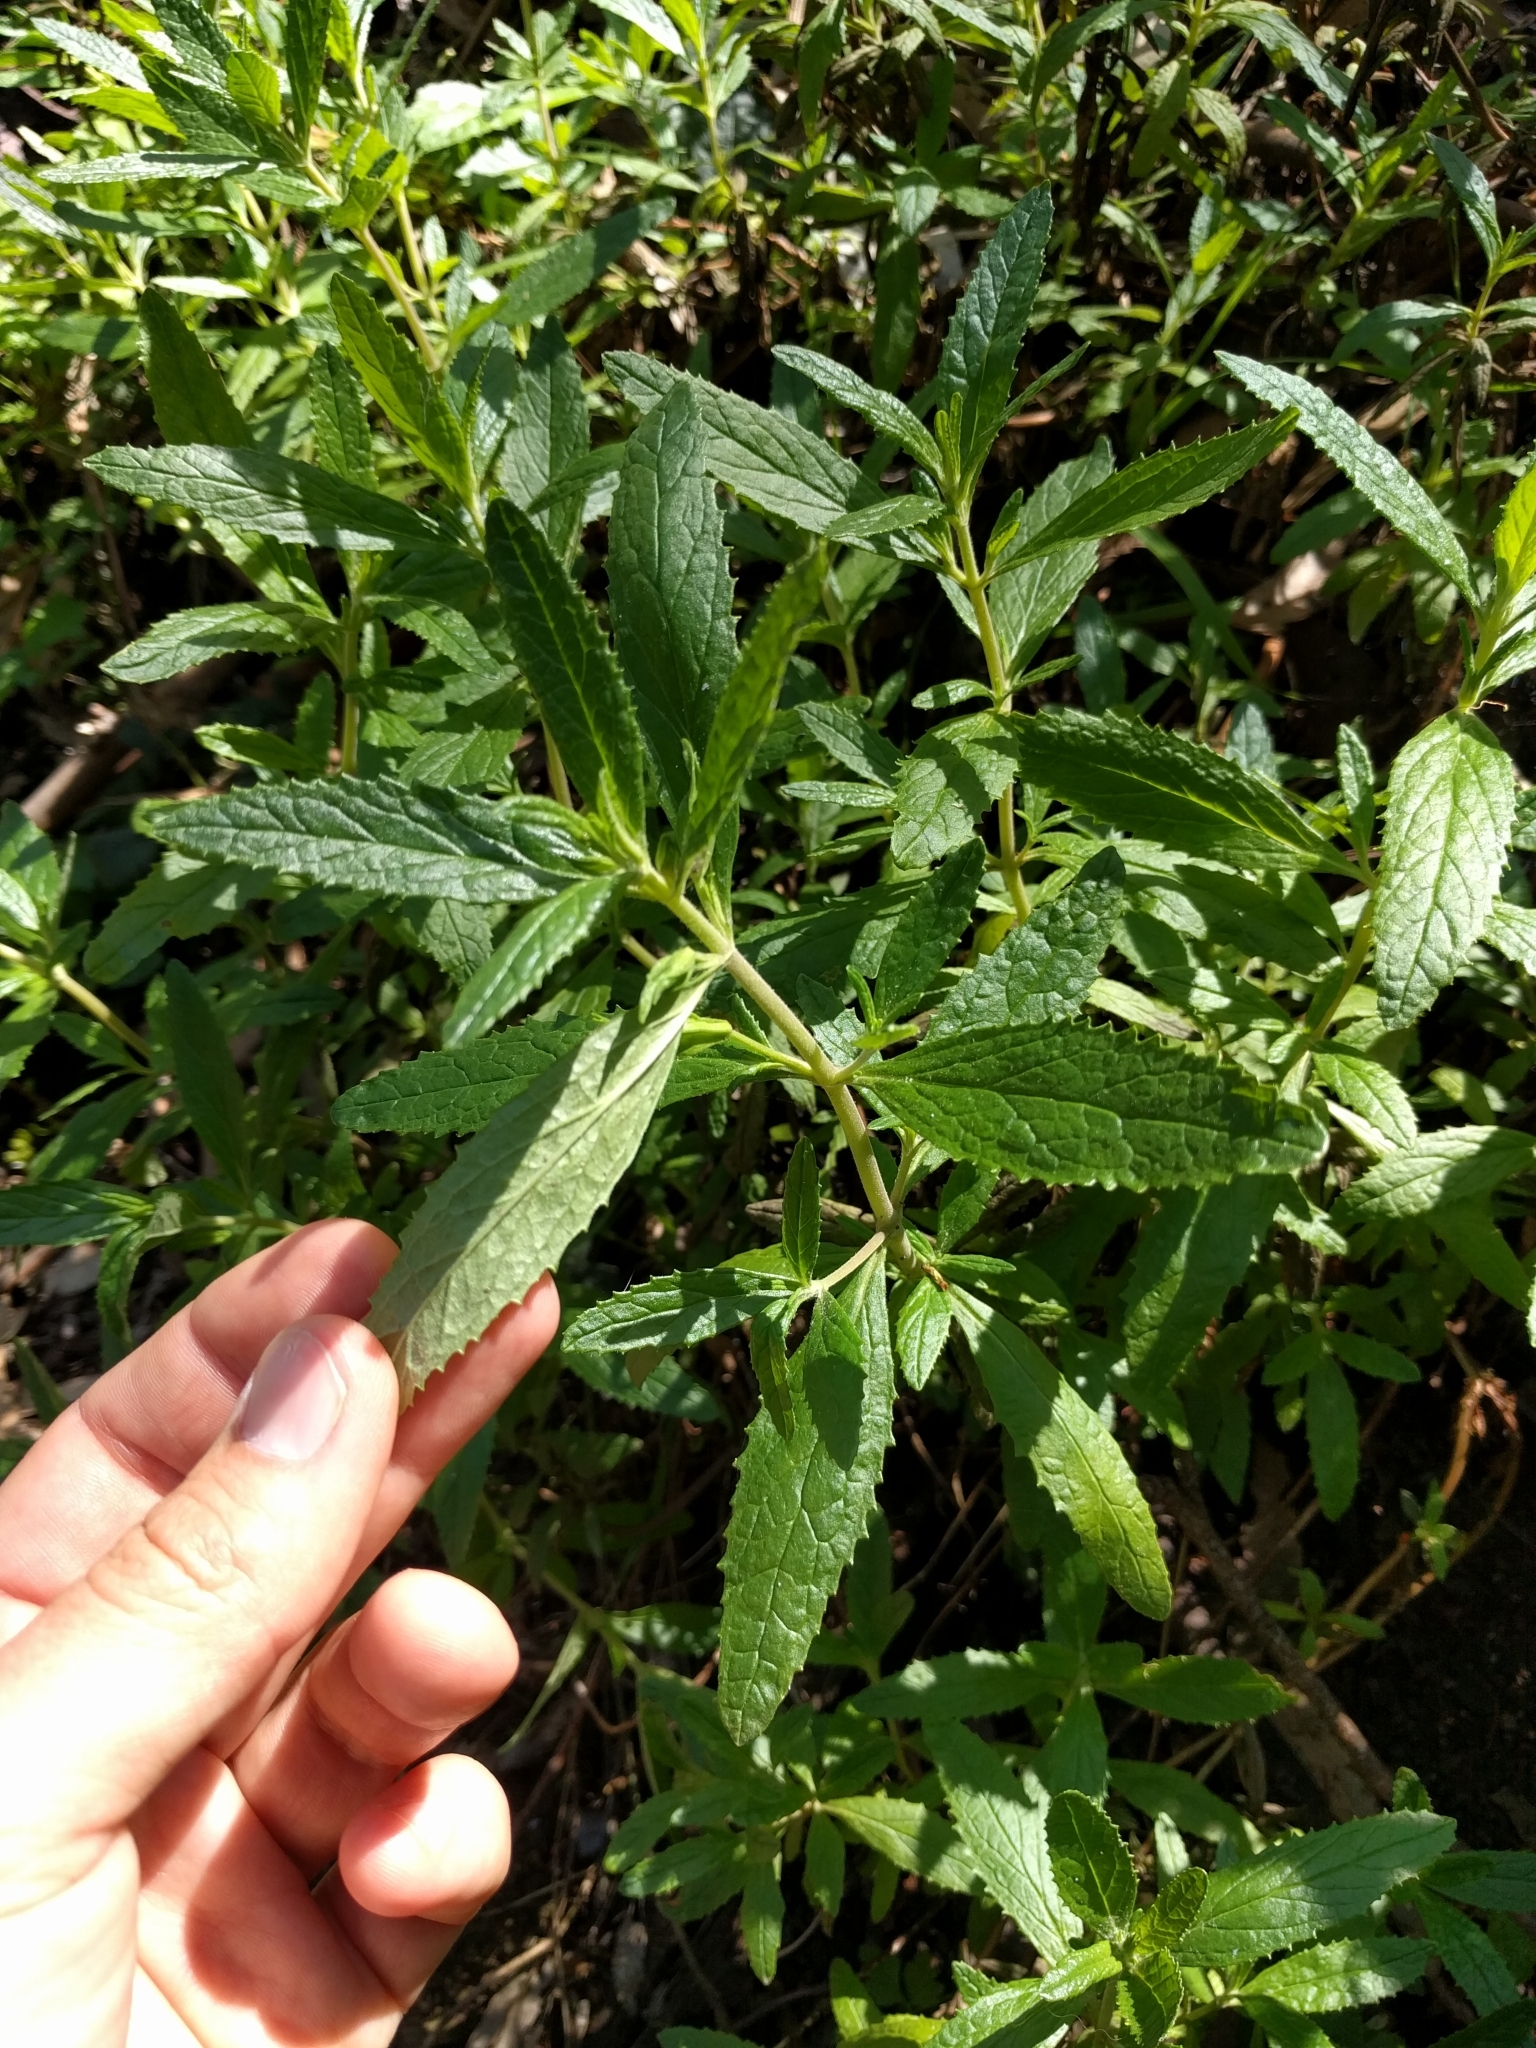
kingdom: Plantae
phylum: Tracheophyta
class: Magnoliopsida
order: Lamiales
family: Phrymaceae
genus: Diplacus
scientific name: Diplacus aurantiacus
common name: Bush monkey-flower
